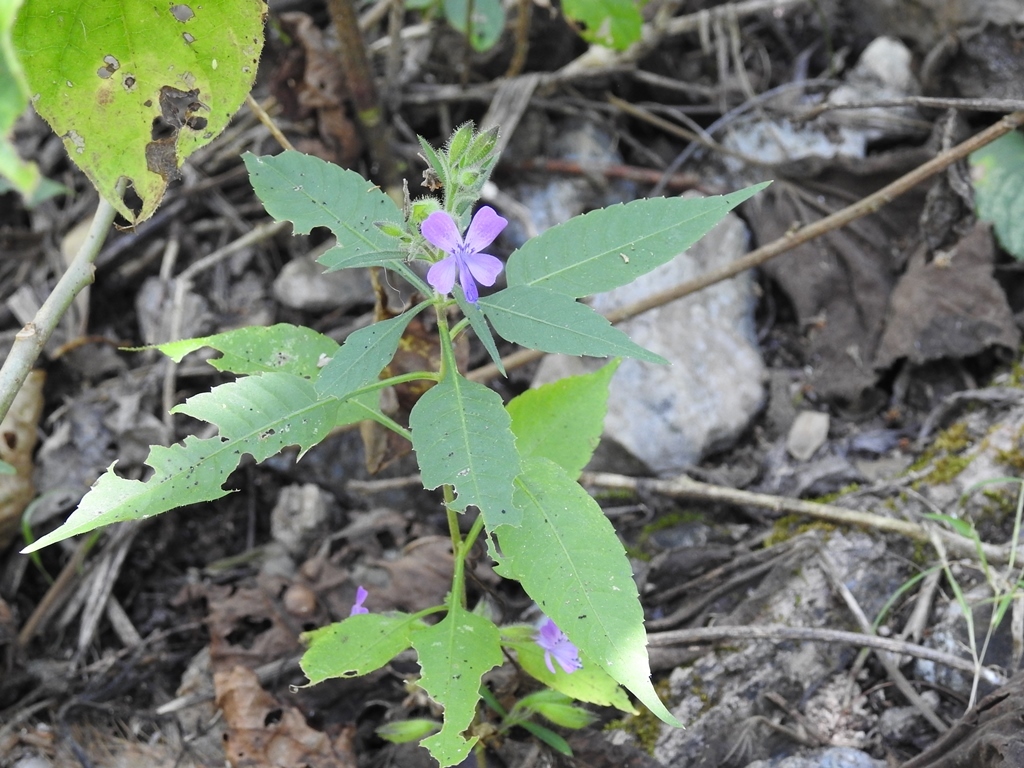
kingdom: Plantae
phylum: Tracheophyta
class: Magnoliopsida
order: Ericales
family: Polemoniaceae
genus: Bonplandia
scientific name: Bonplandia geminiflora
